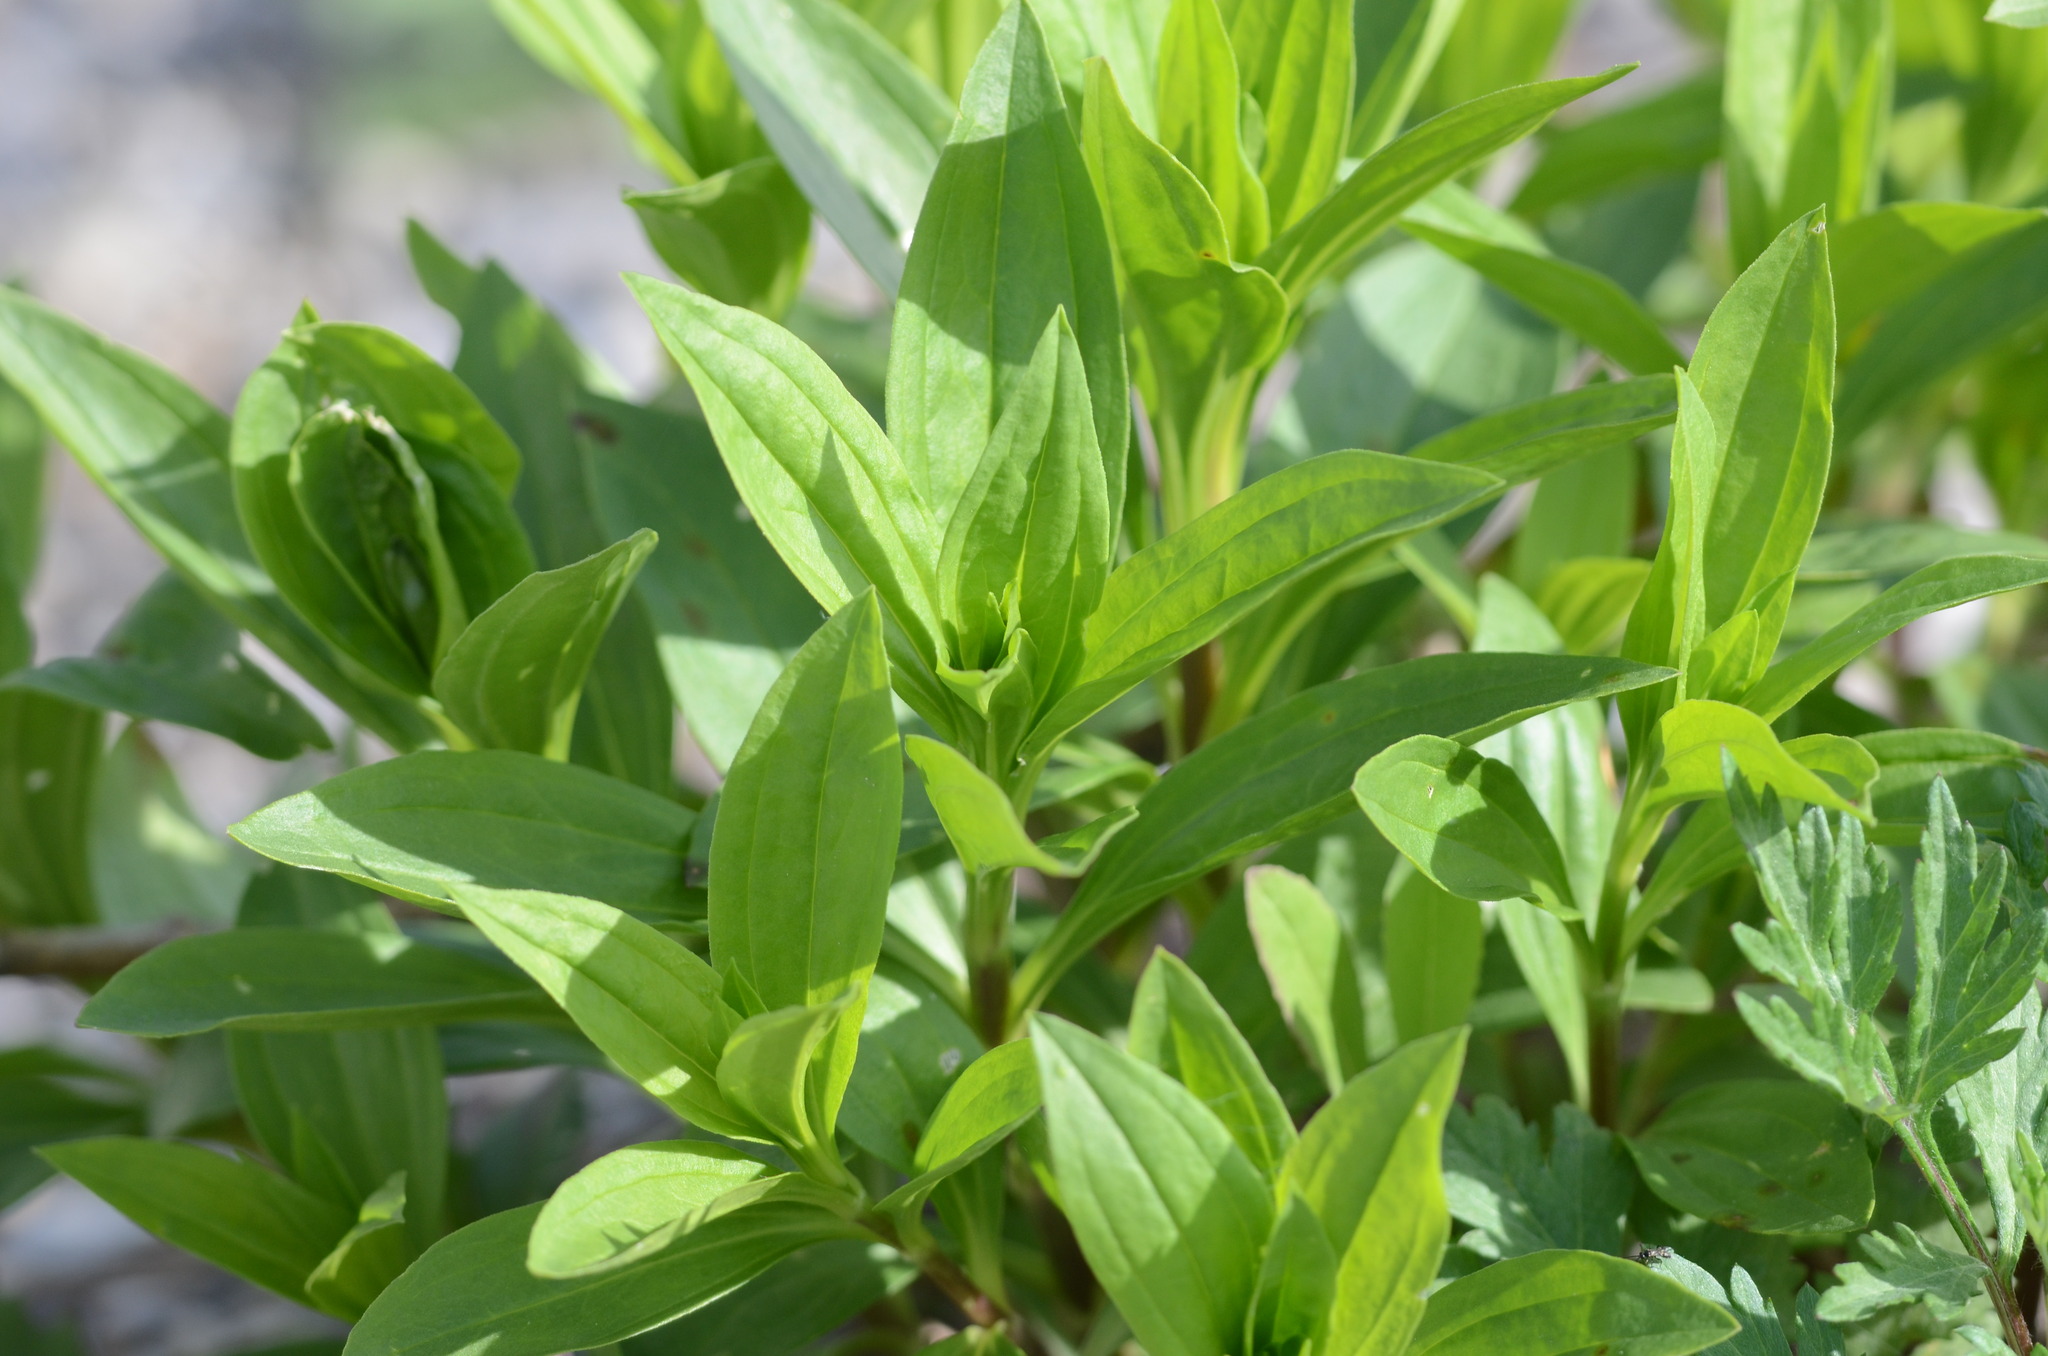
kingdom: Plantae
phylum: Tracheophyta
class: Magnoliopsida
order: Caryophyllales
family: Caryophyllaceae
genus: Saponaria
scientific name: Saponaria officinalis
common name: Soapwort
